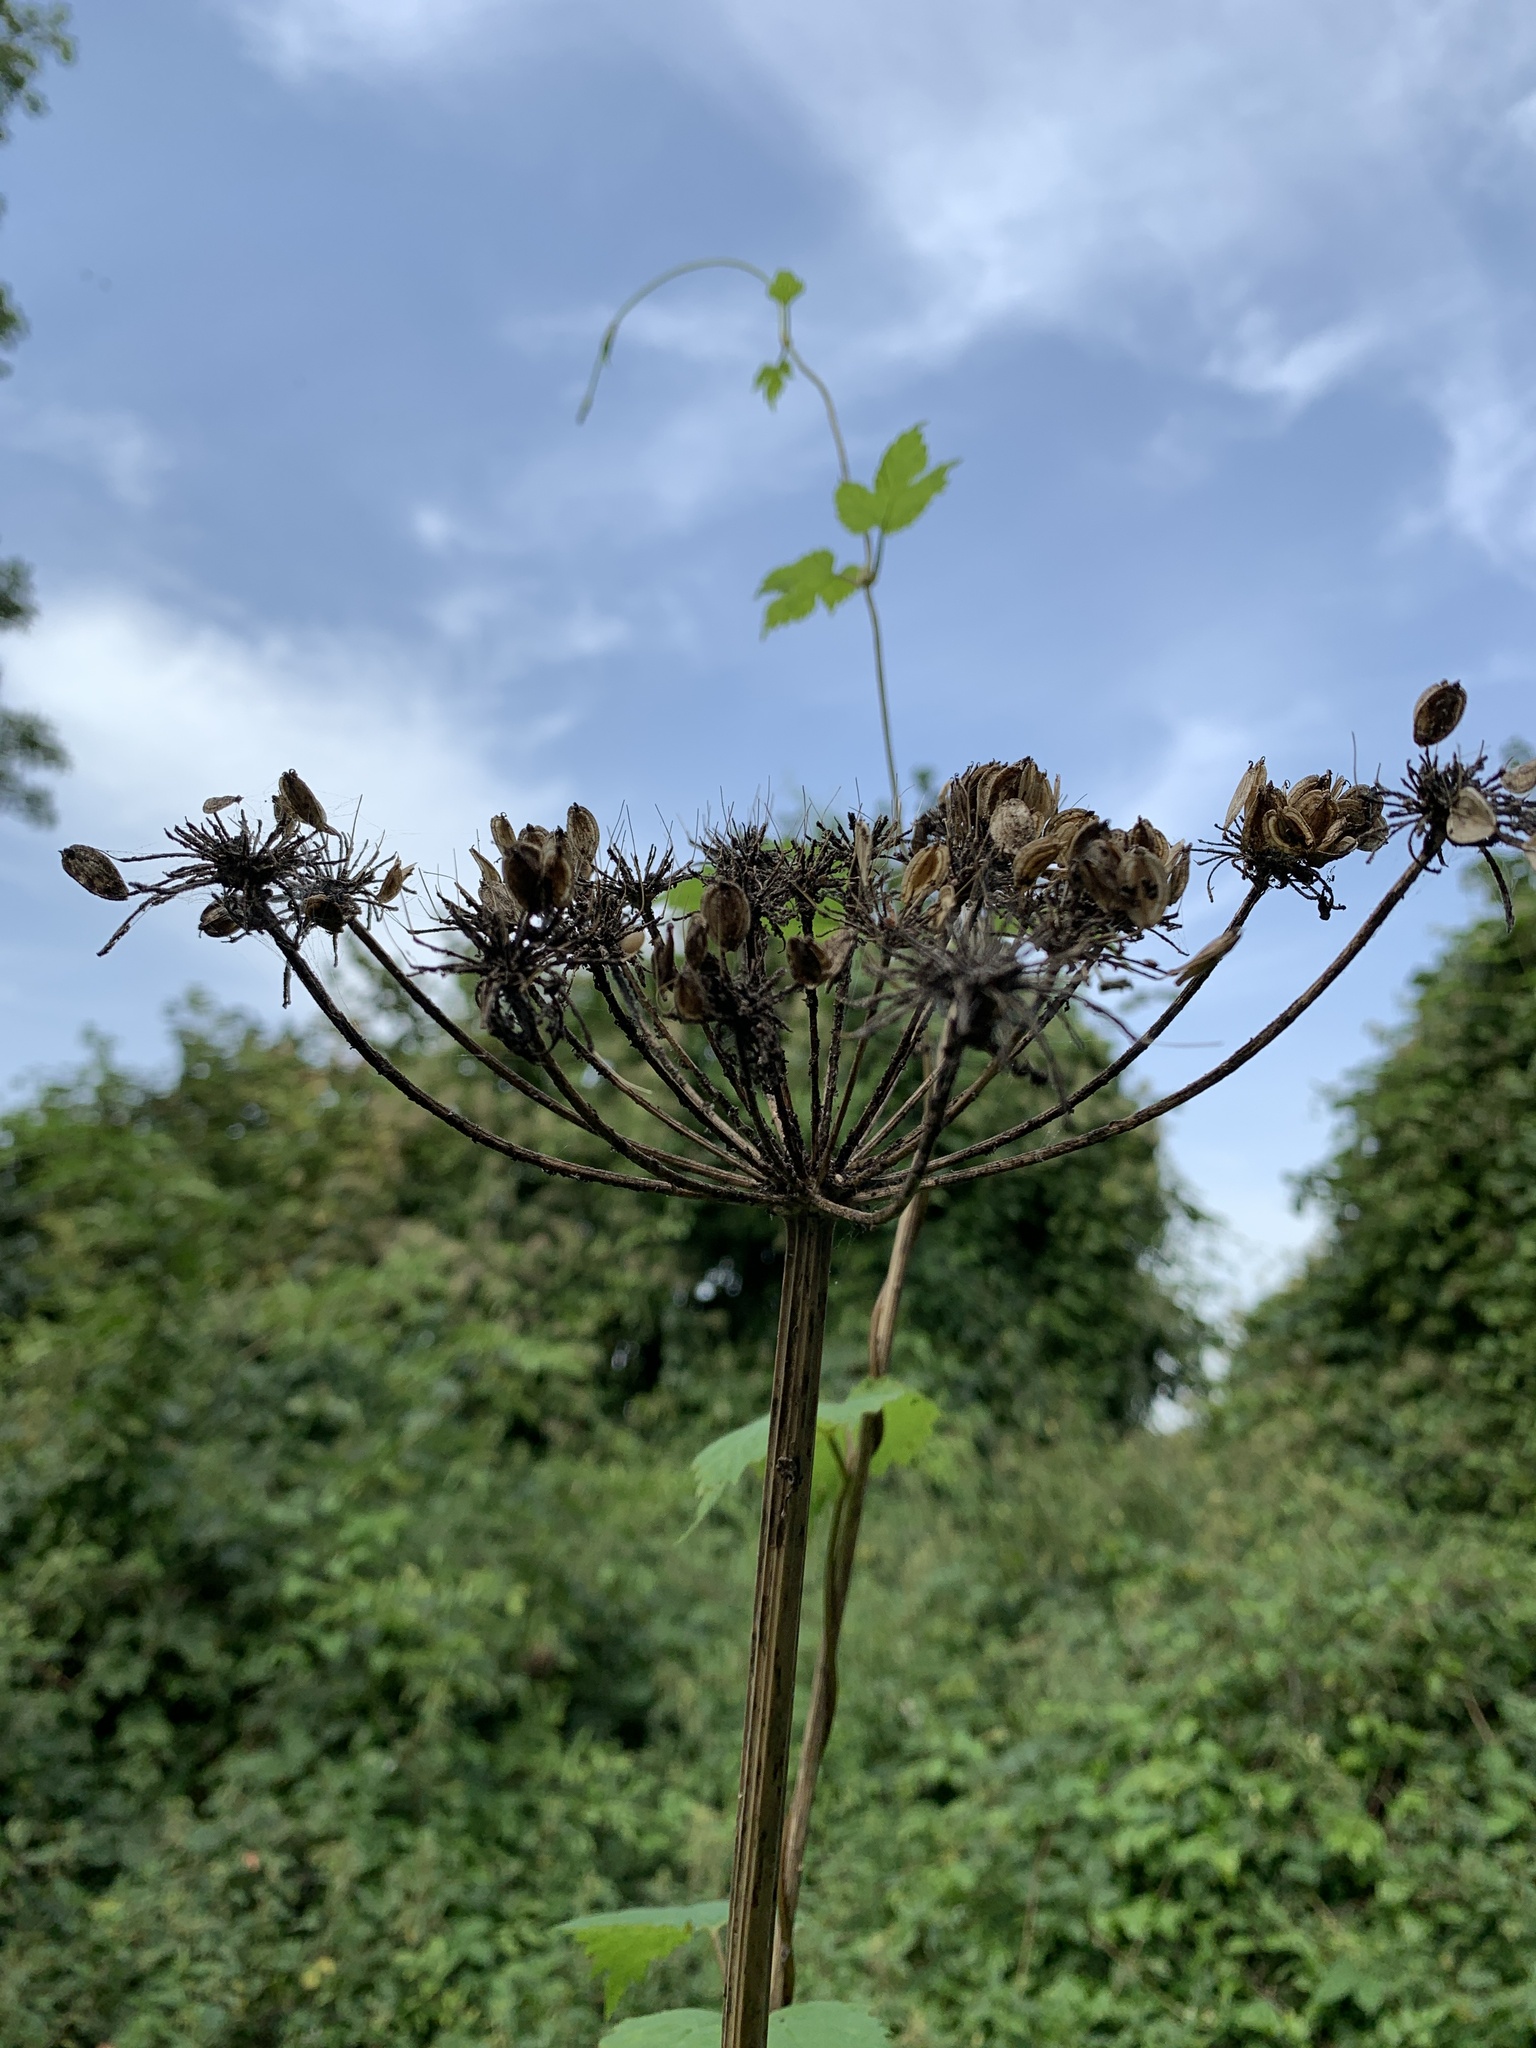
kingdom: Plantae
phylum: Tracheophyta
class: Magnoliopsida
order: Apiales
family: Apiaceae
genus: Heracleum
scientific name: Heracleum sphondylium
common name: Hogweed
